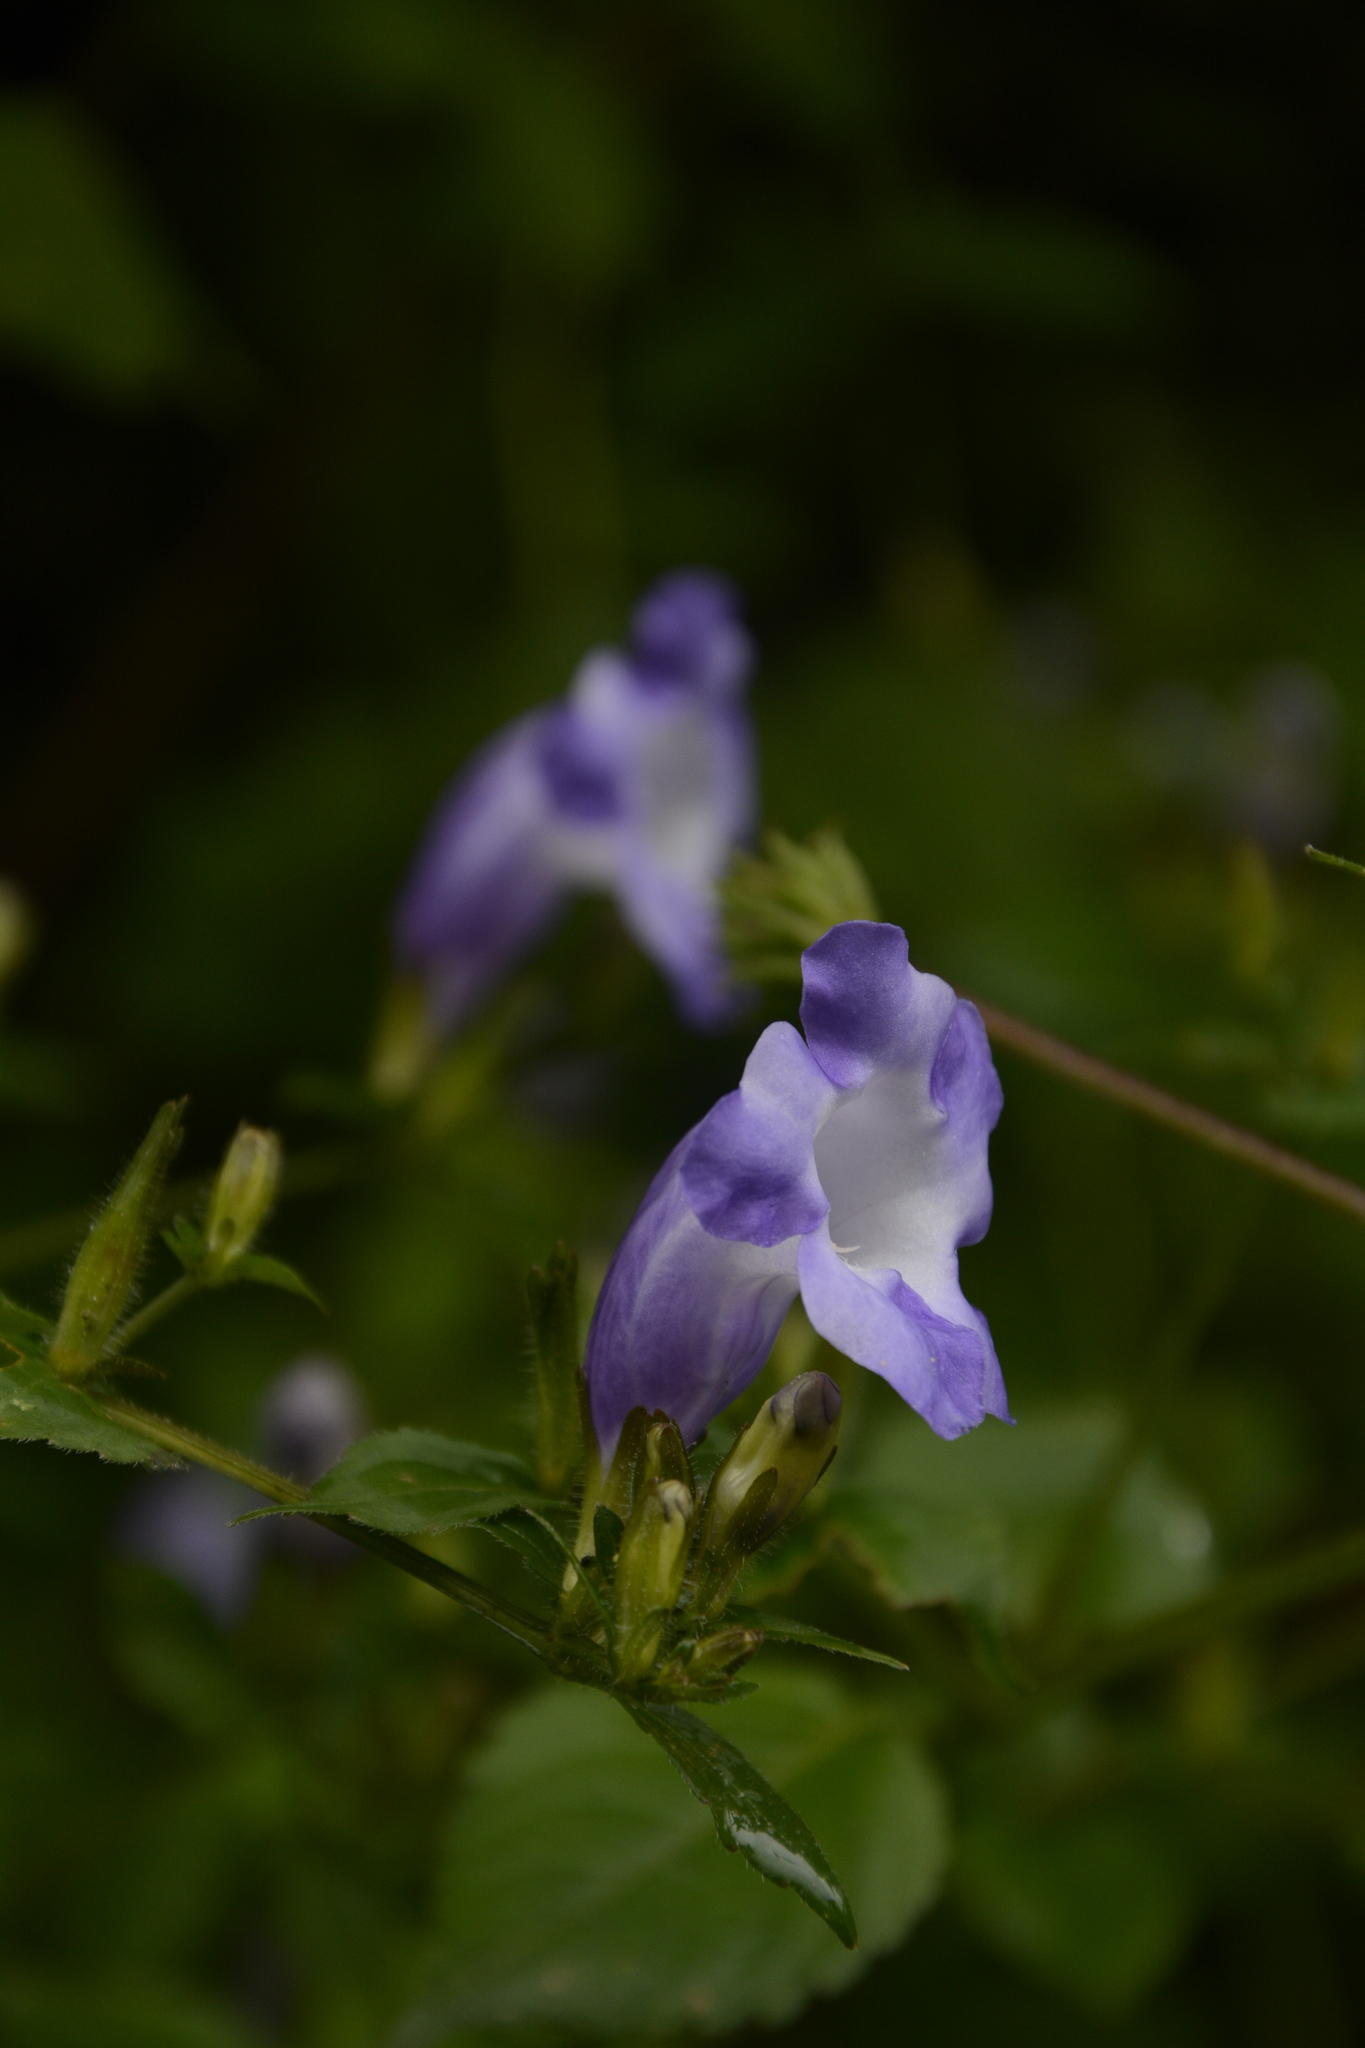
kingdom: Plantae
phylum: Tracheophyta
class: Magnoliopsida
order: Lamiales
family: Acanthaceae
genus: Strobilanthes
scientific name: Strobilanthes atropurpurea
